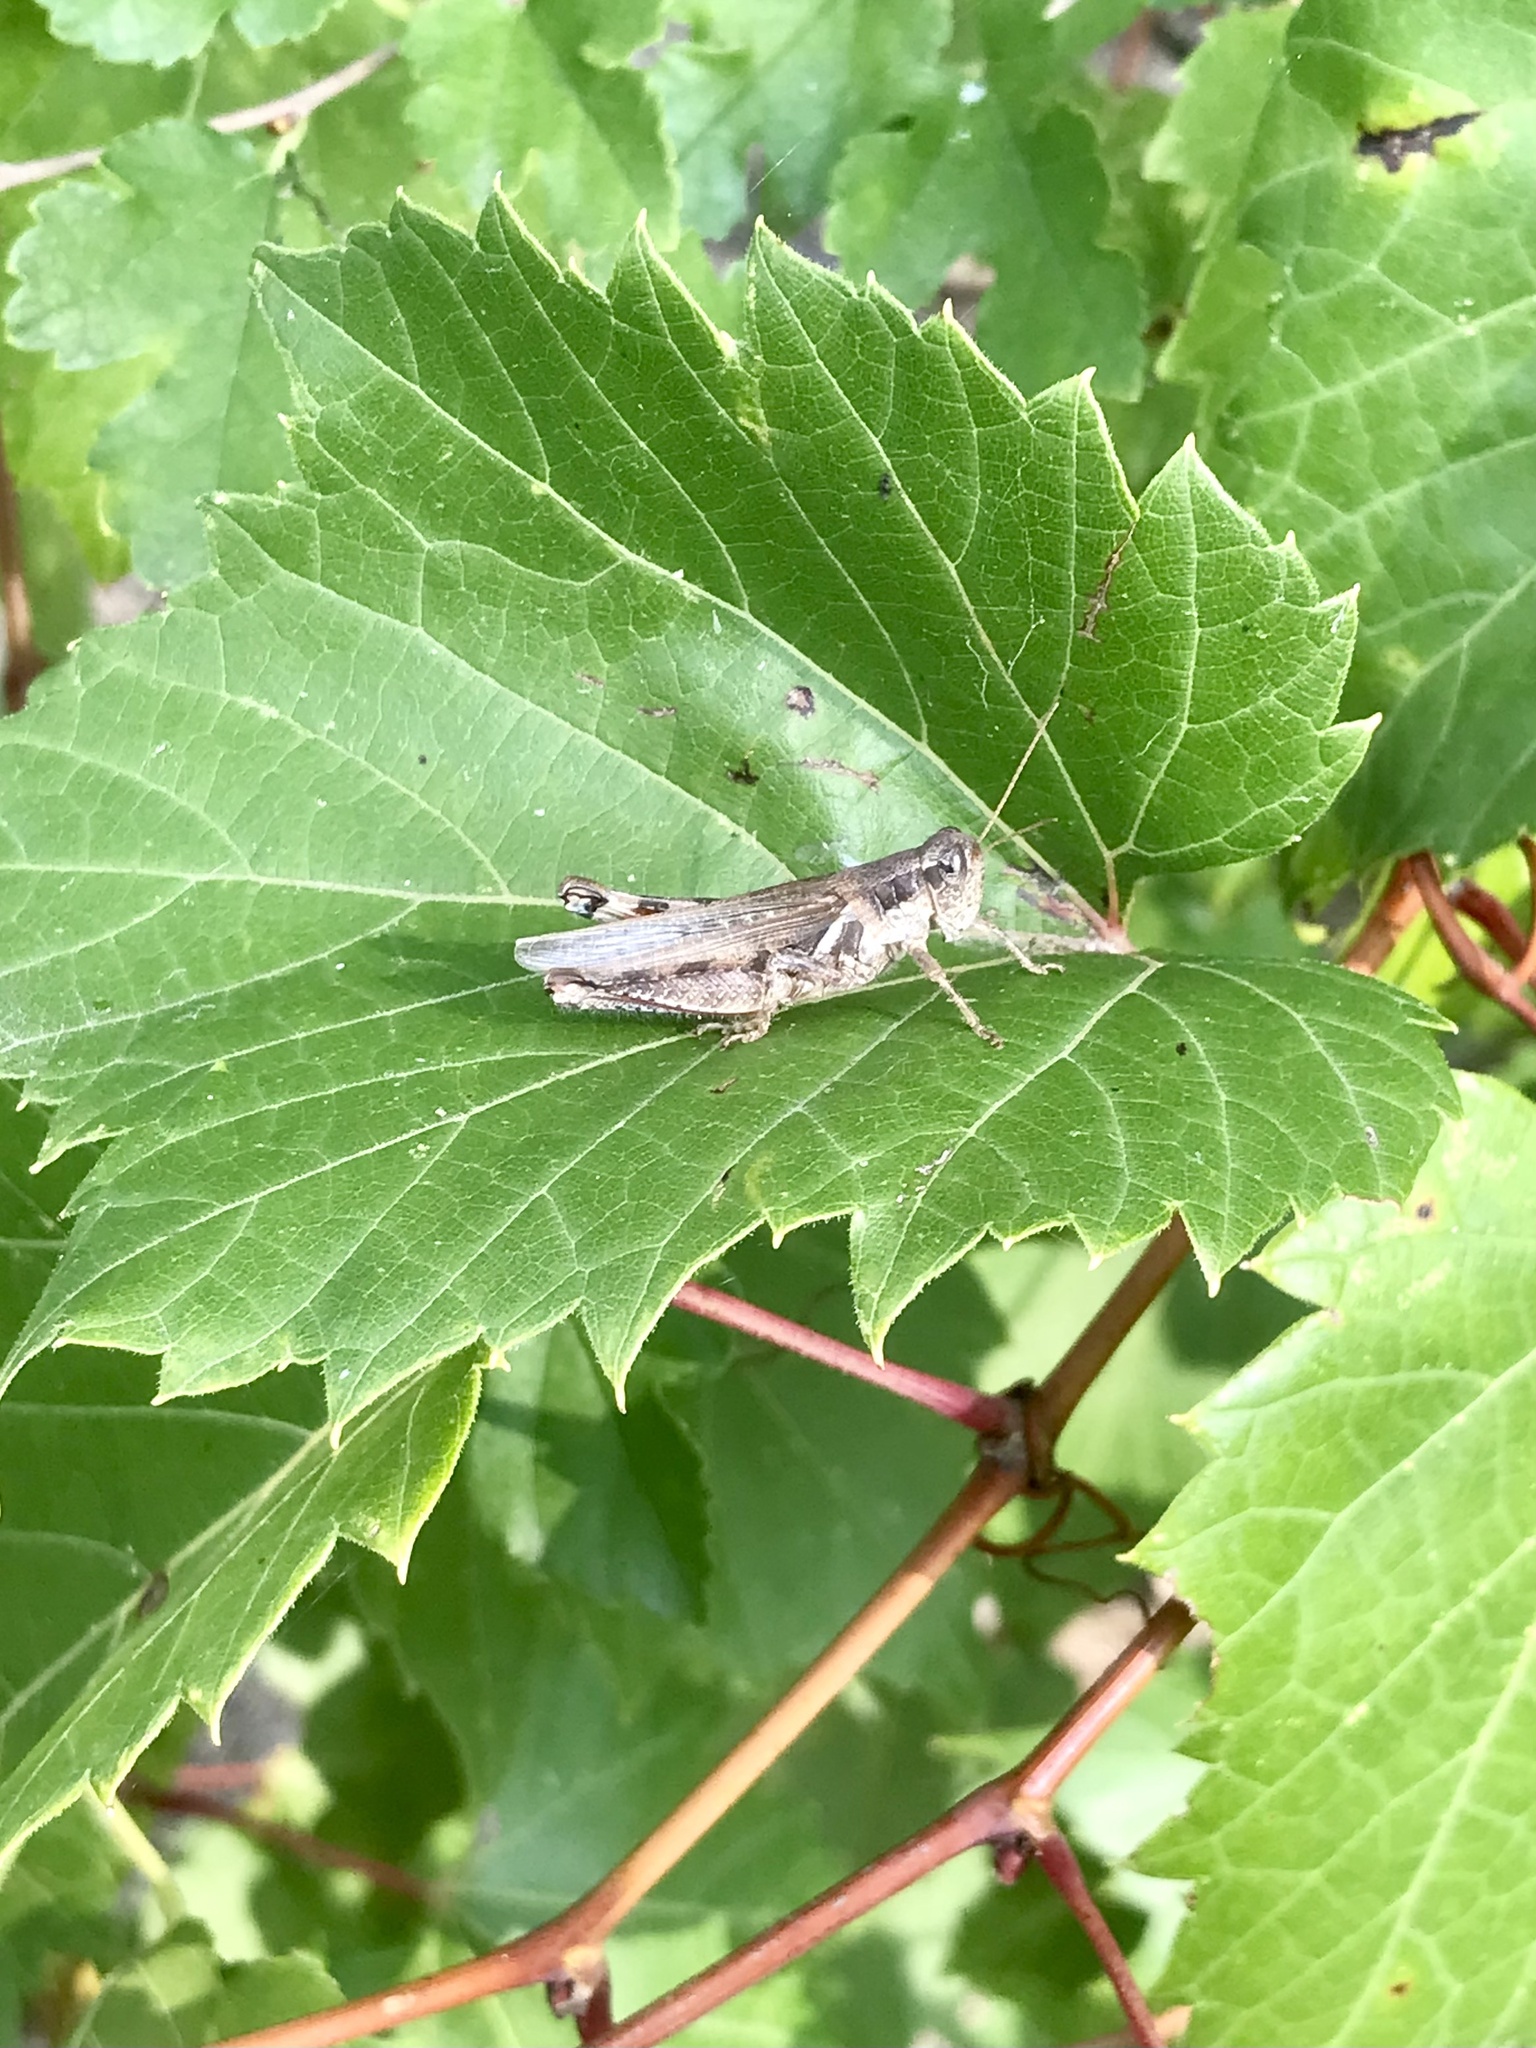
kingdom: Animalia
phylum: Arthropoda
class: Insecta
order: Orthoptera
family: Acrididae
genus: Melanoplus
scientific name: Melanoplus foedus
